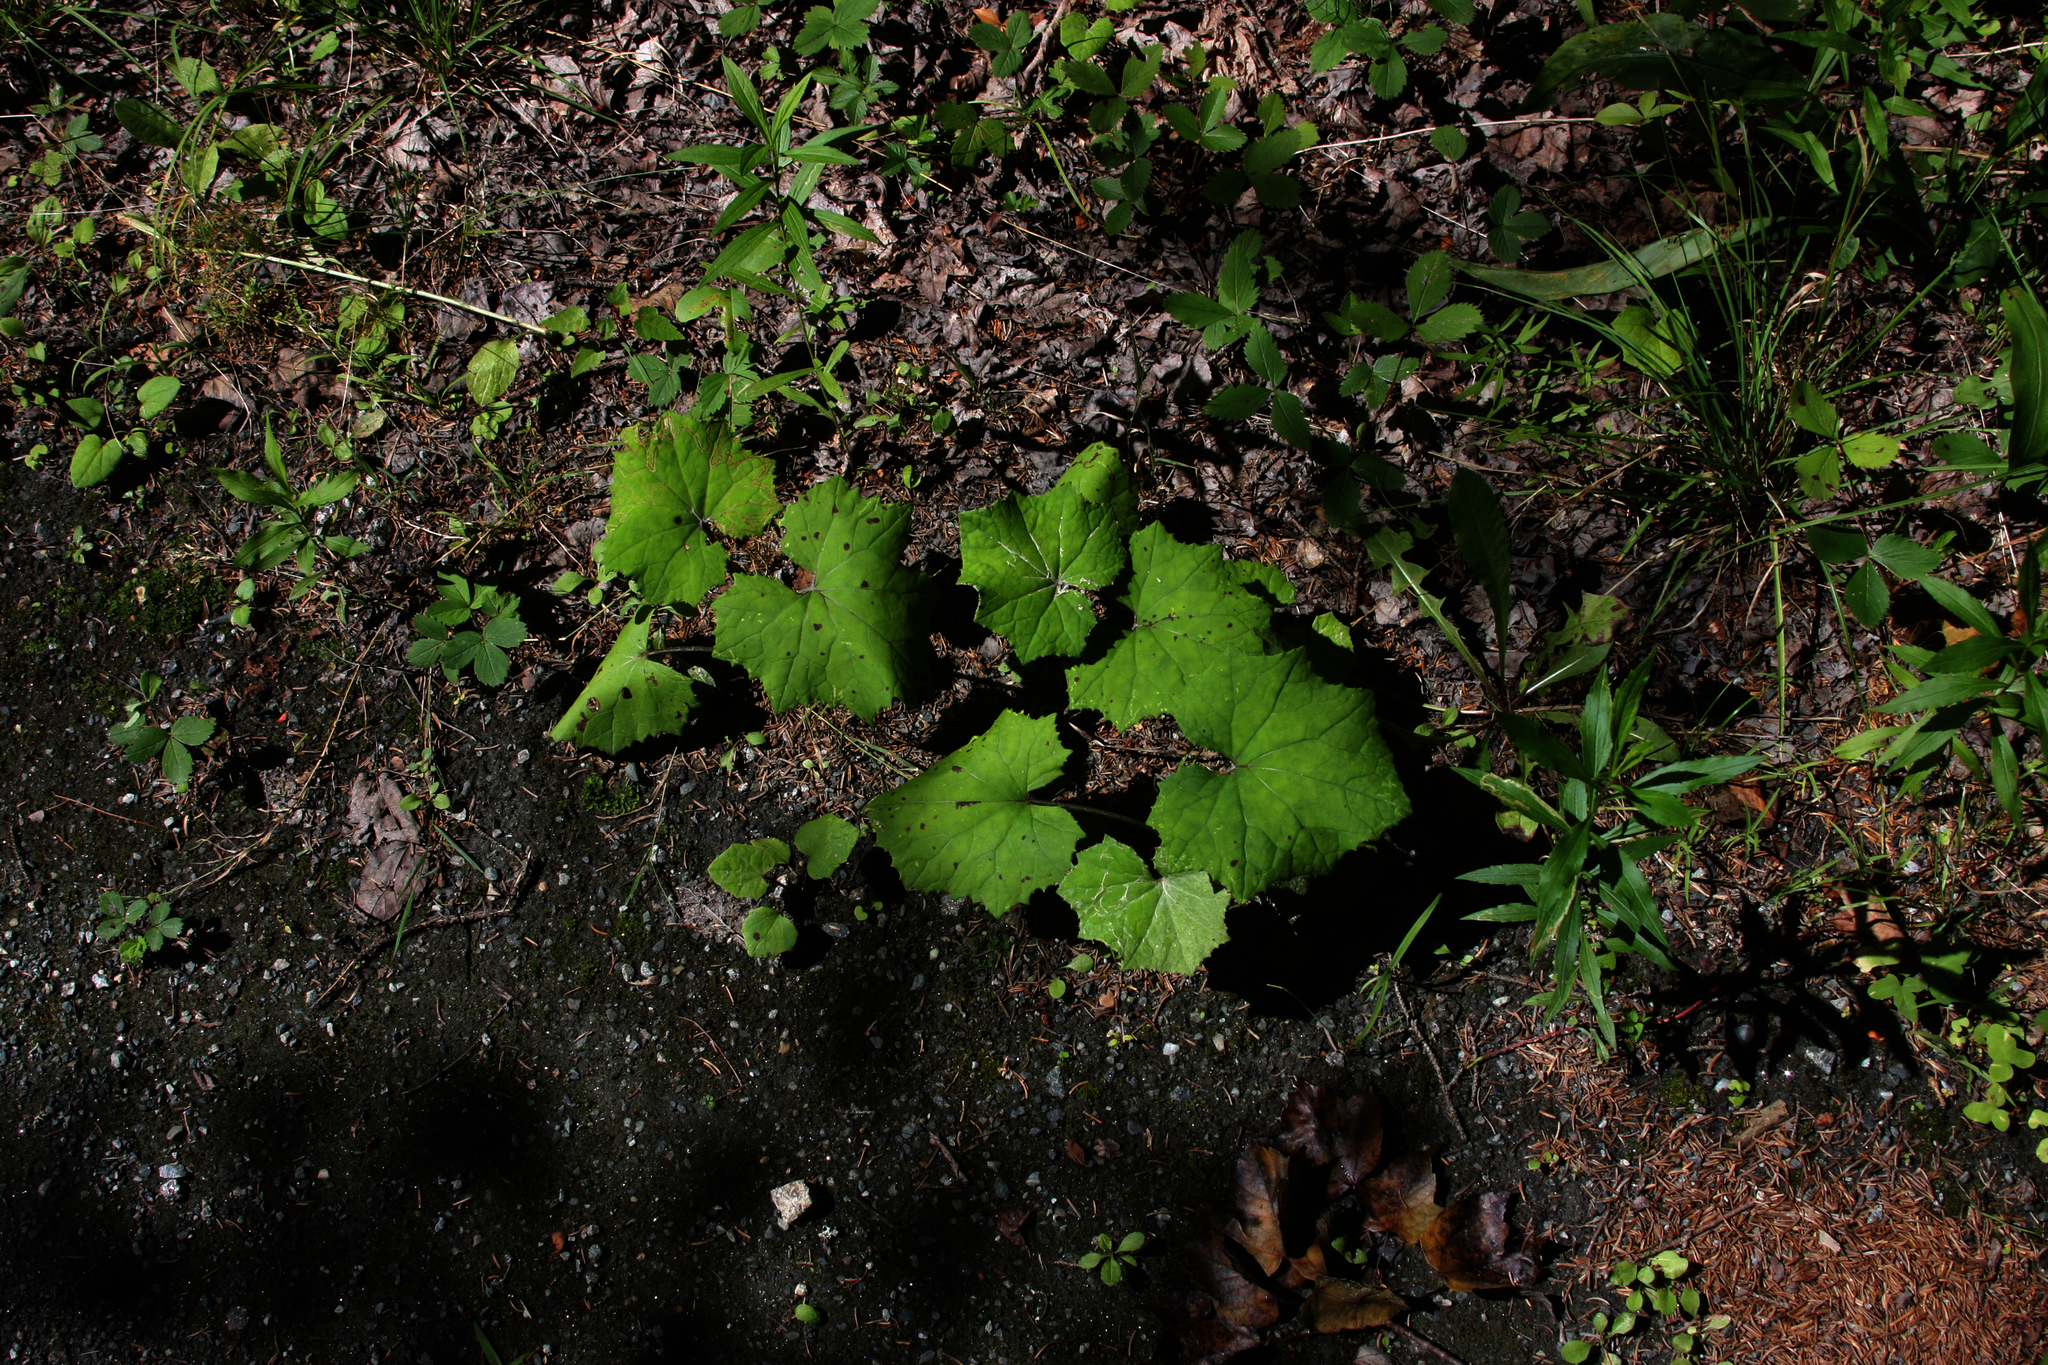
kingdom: Plantae
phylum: Tracheophyta
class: Magnoliopsida
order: Asterales
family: Asteraceae
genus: Tussilago
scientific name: Tussilago farfara
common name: Coltsfoot
